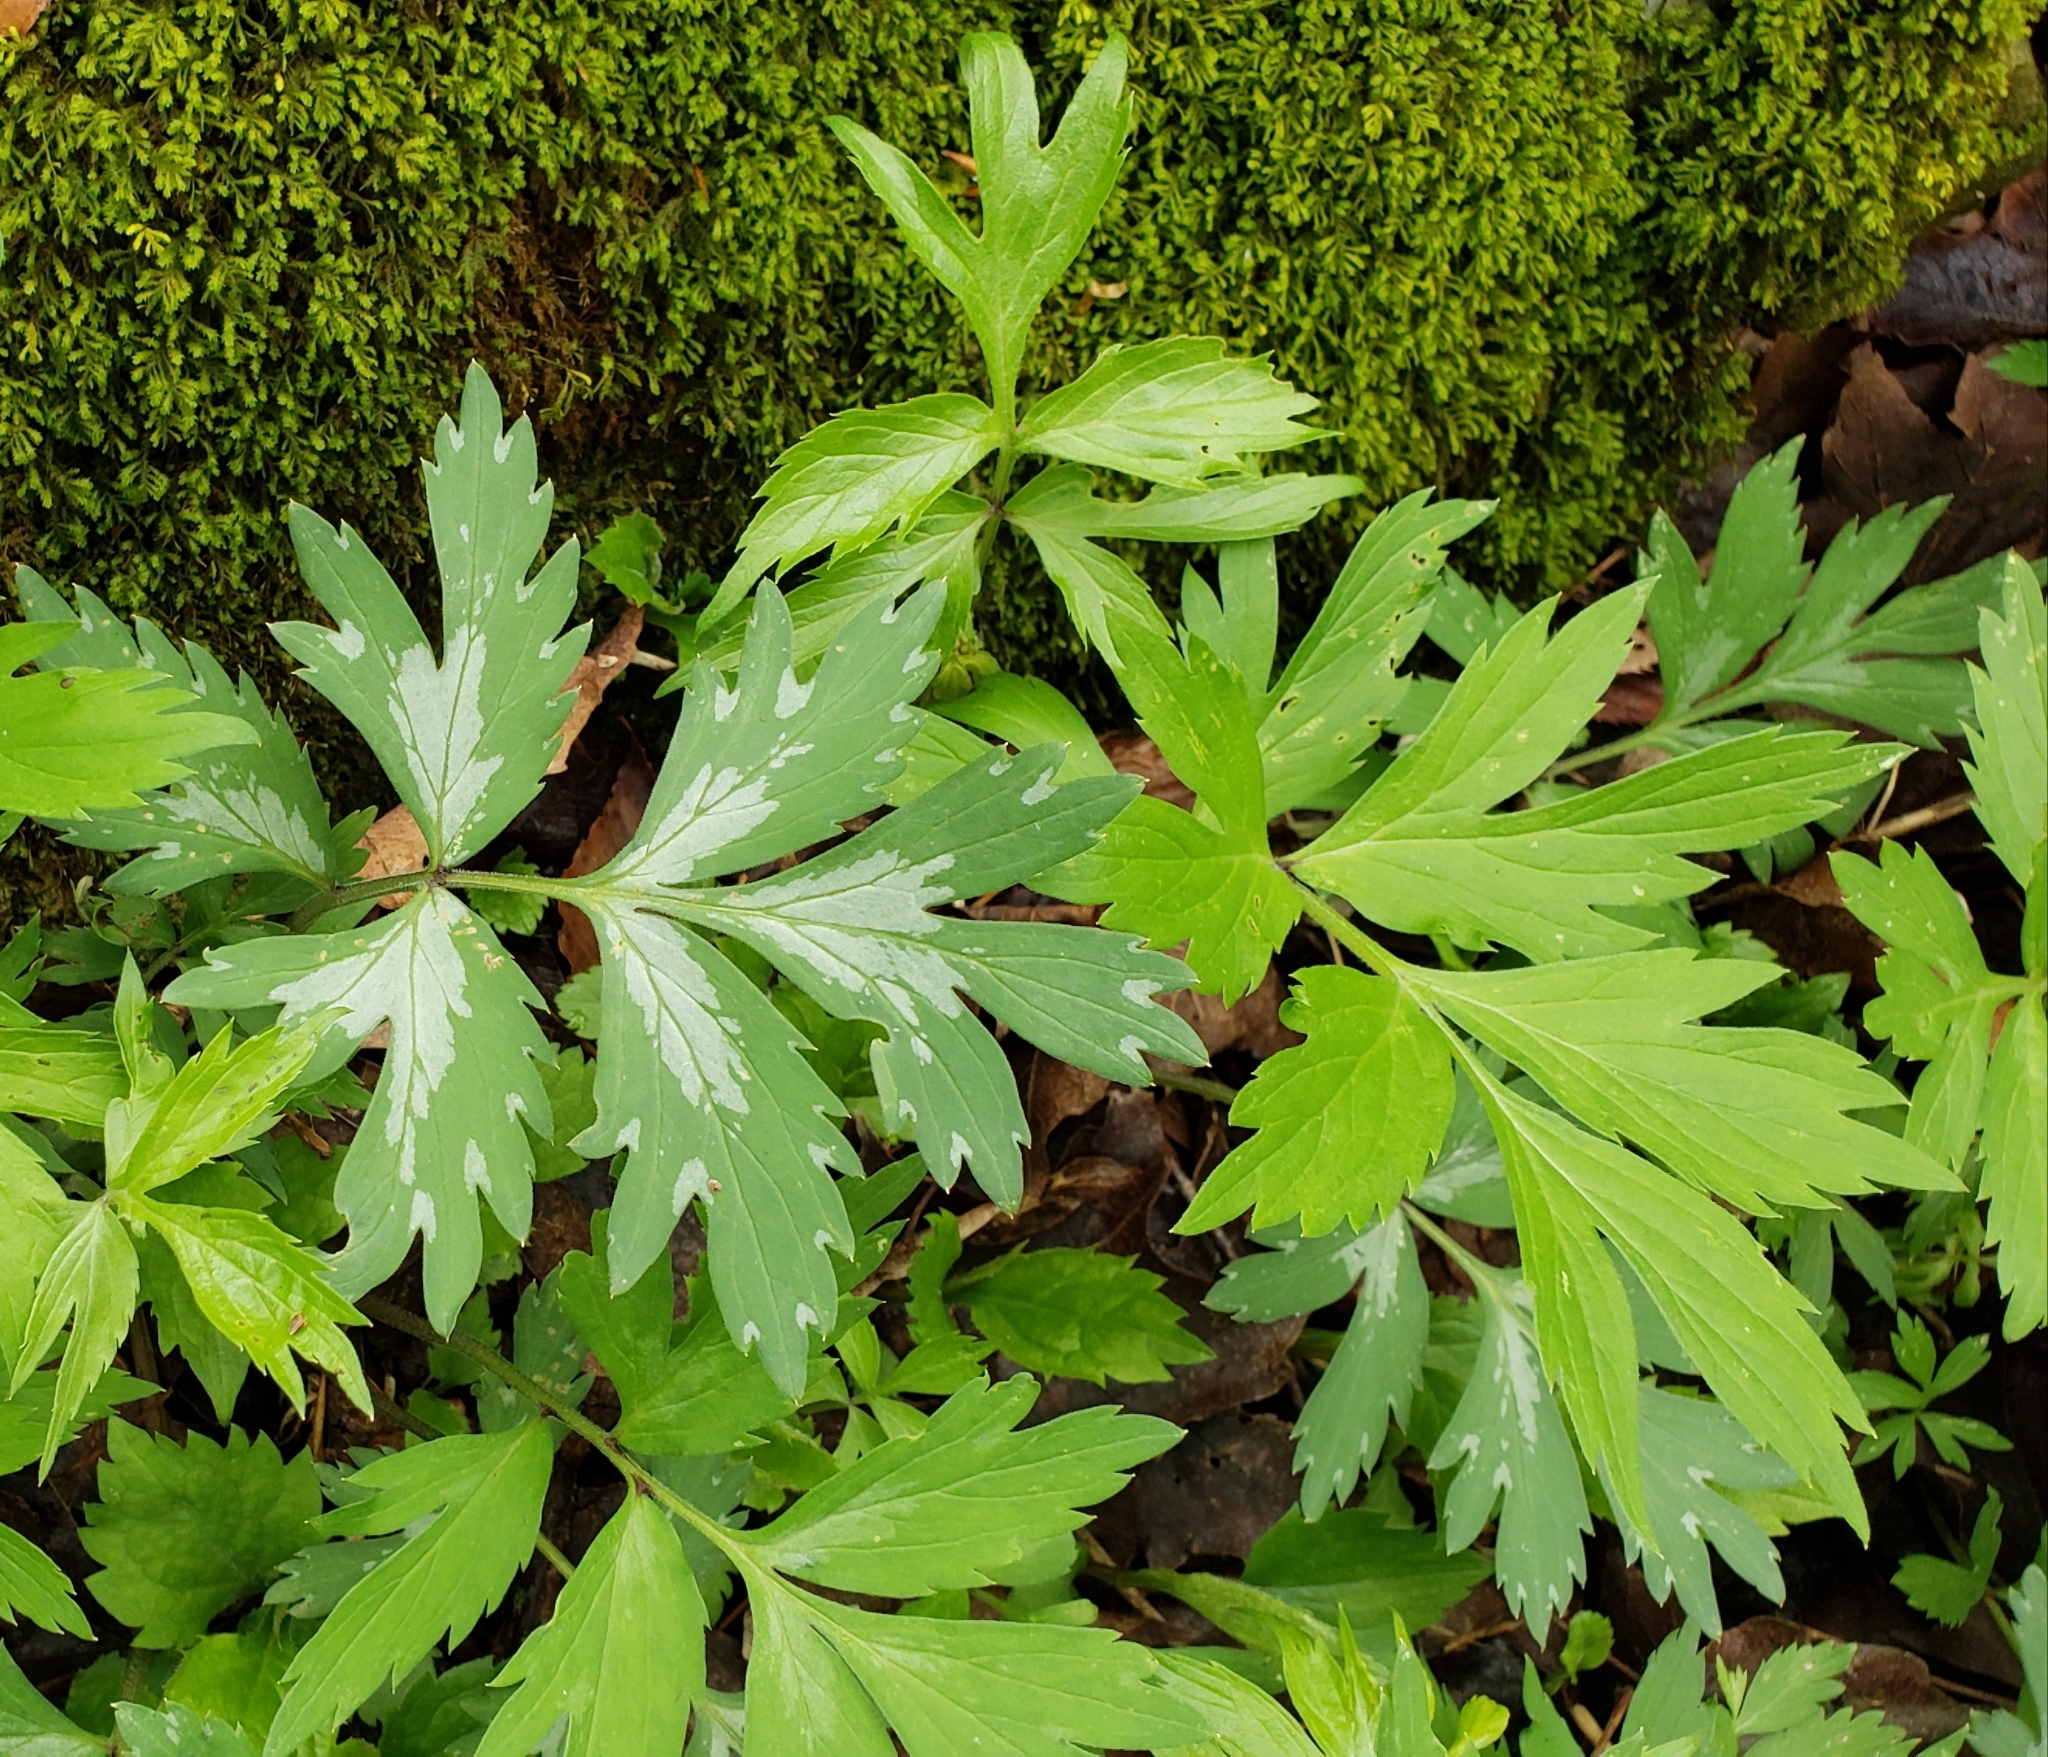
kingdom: Plantae
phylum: Tracheophyta
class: Magnoliopsida
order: Boraginales
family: Hydrophyllaceae
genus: Hydrophyllum
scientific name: Hydrophyllum virginianum
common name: Virginia waterleaf
